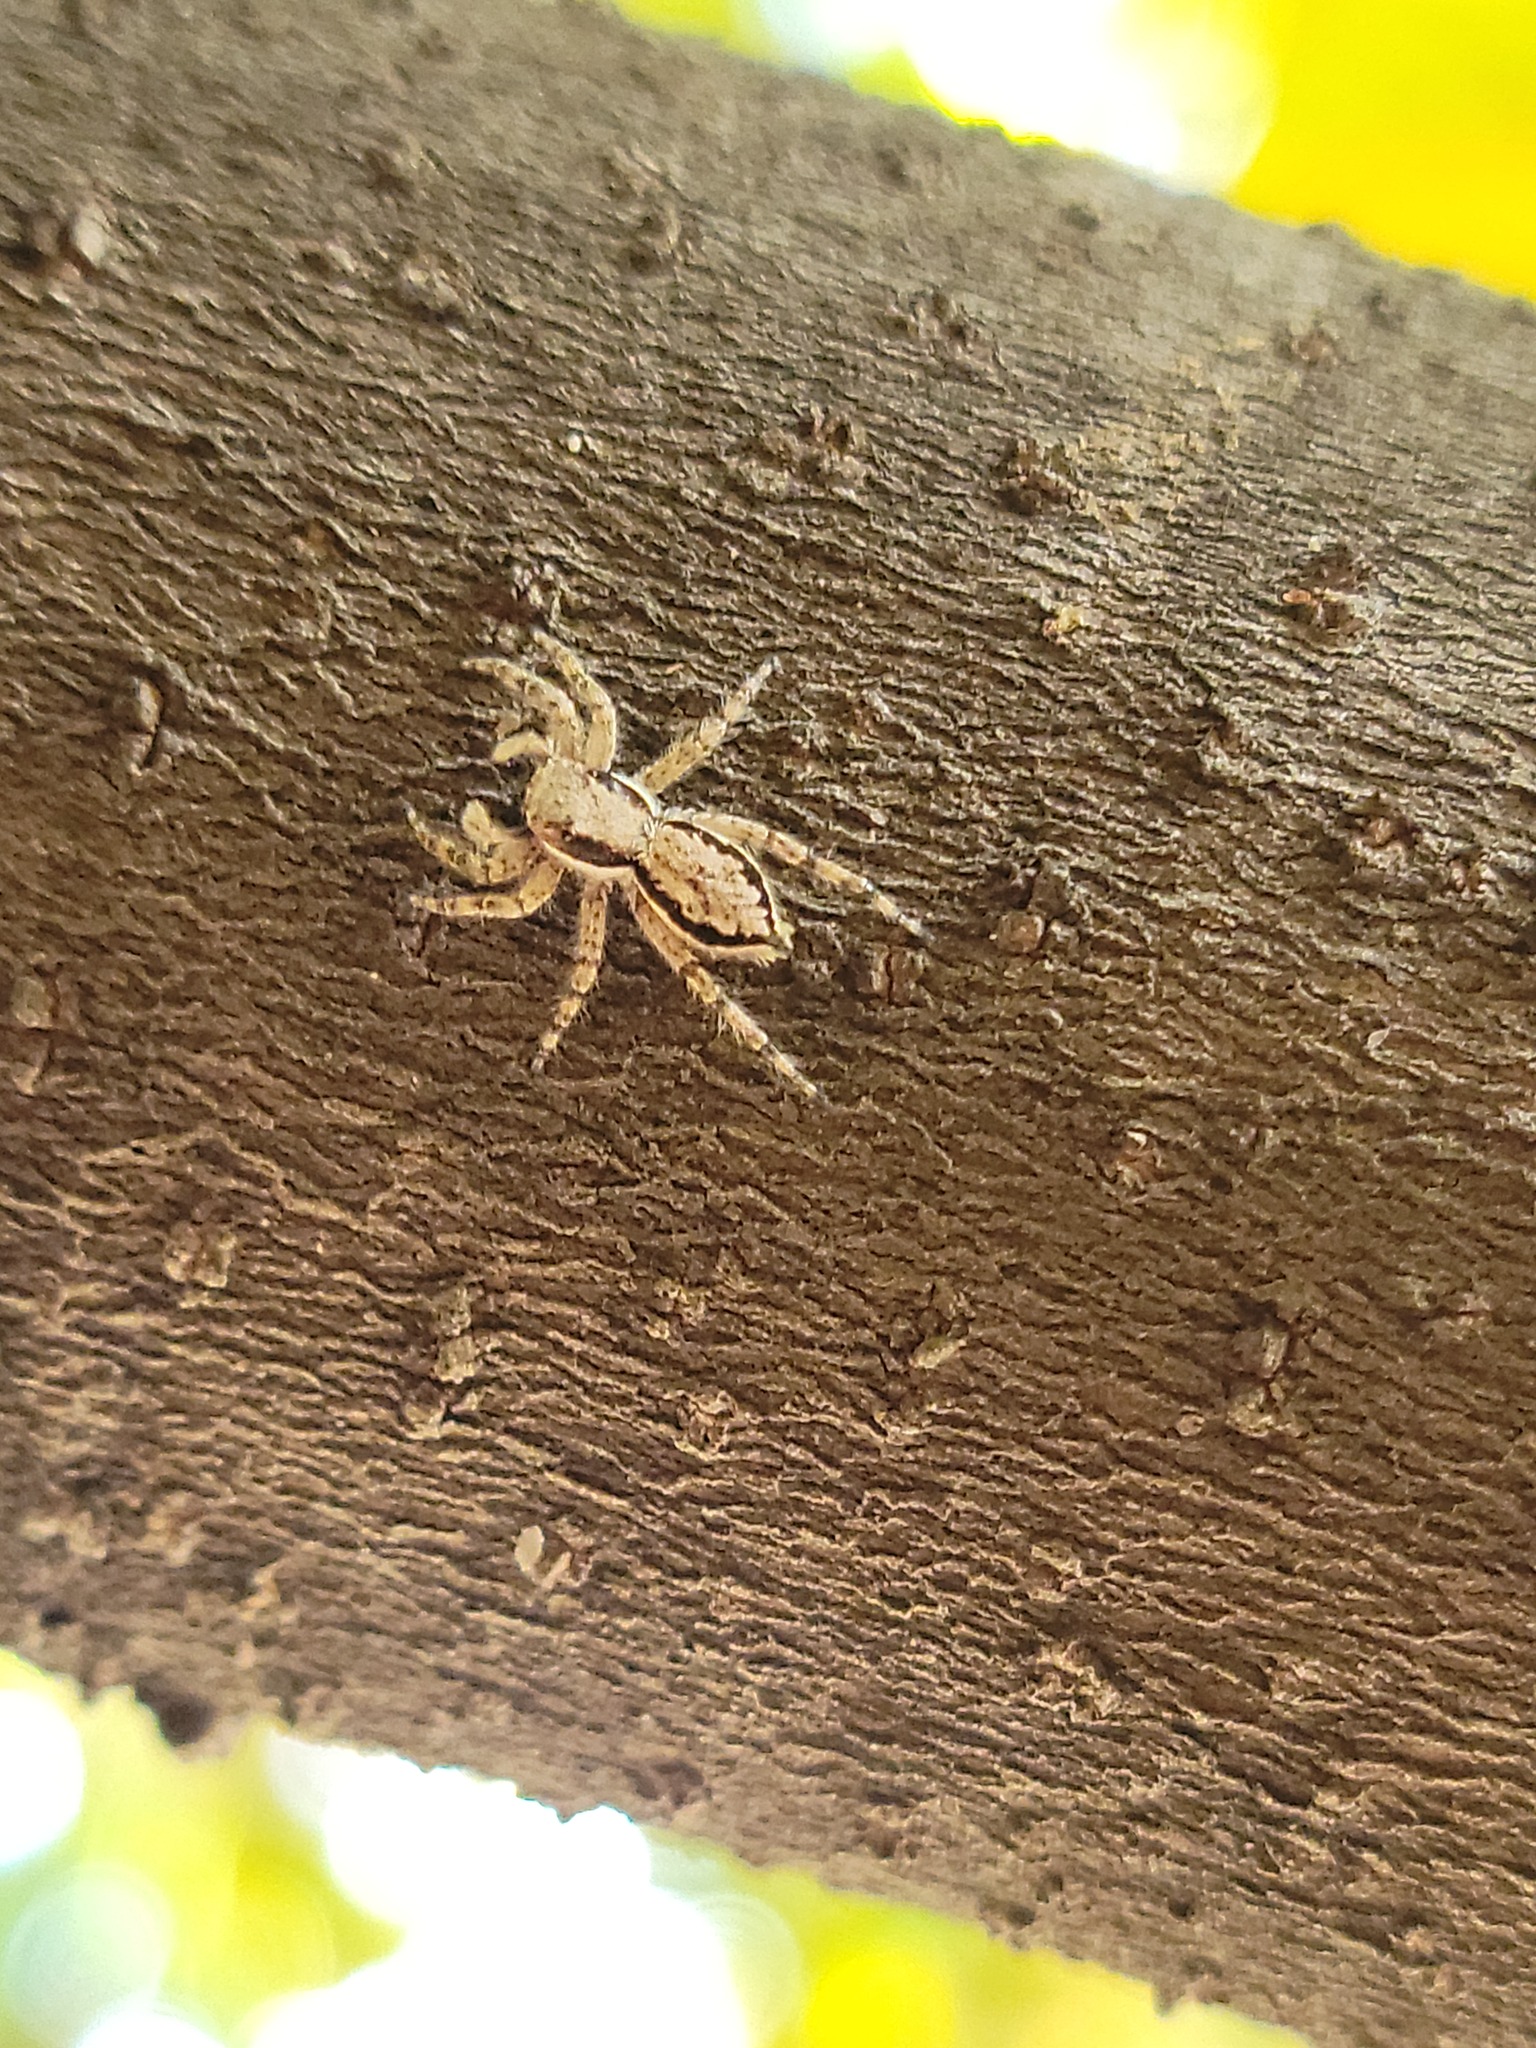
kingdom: Animalia
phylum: Arthropoda
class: Arachnida
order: Araneae
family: Salticidae
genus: Menemerus
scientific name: Menemerus bivittatus
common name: Gray wall jumper
